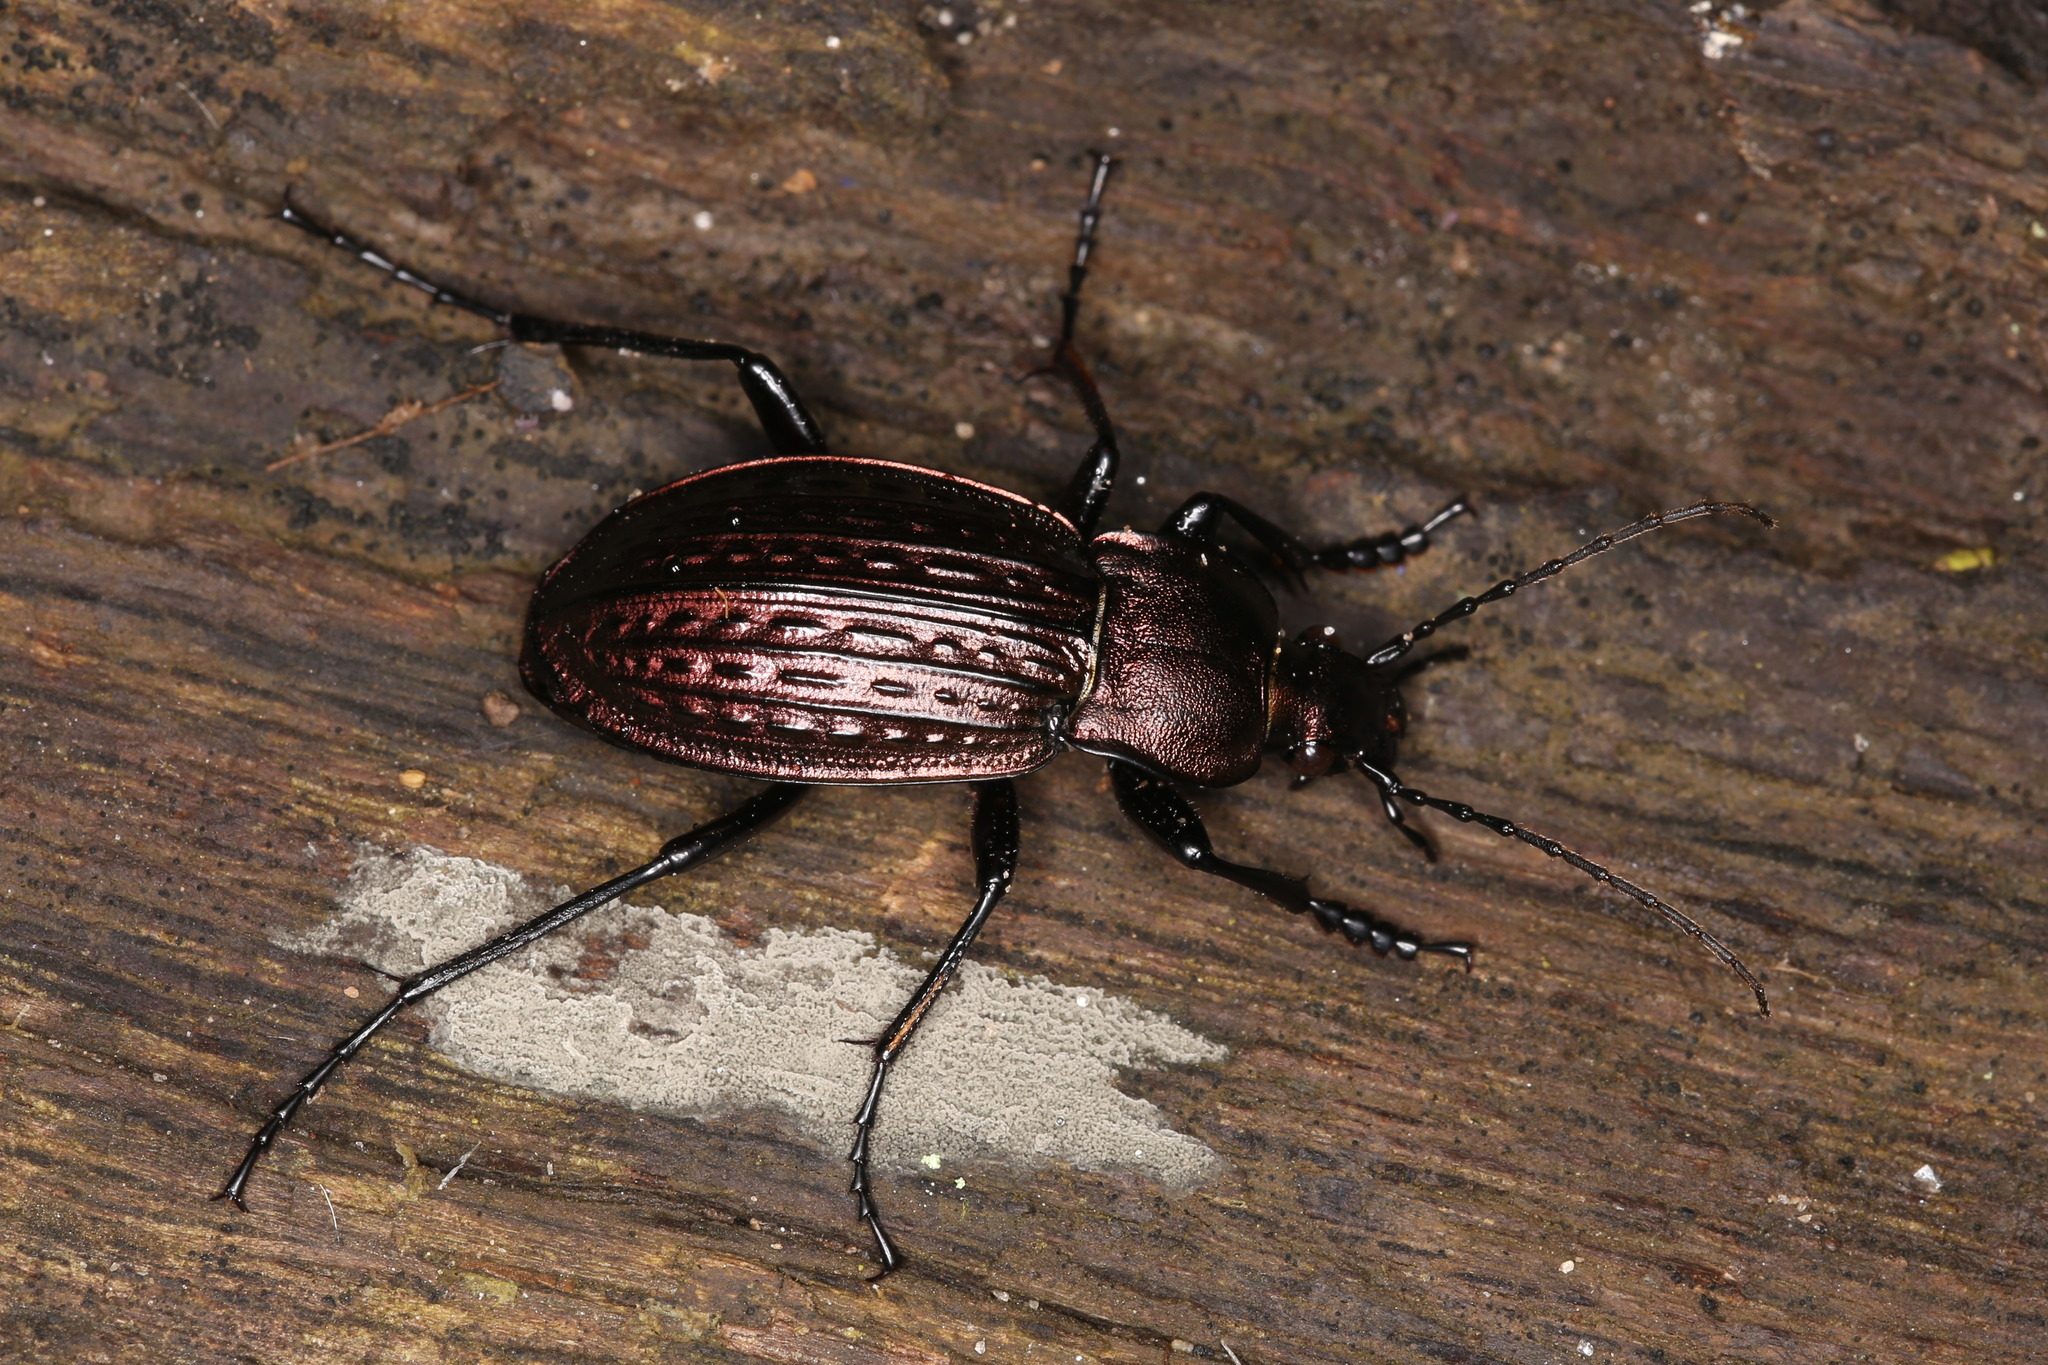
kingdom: Animalia
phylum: Arthropoda
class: Insecta
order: Coleoptera
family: Carabidae
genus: Carabus
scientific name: Carabus cancellatus
